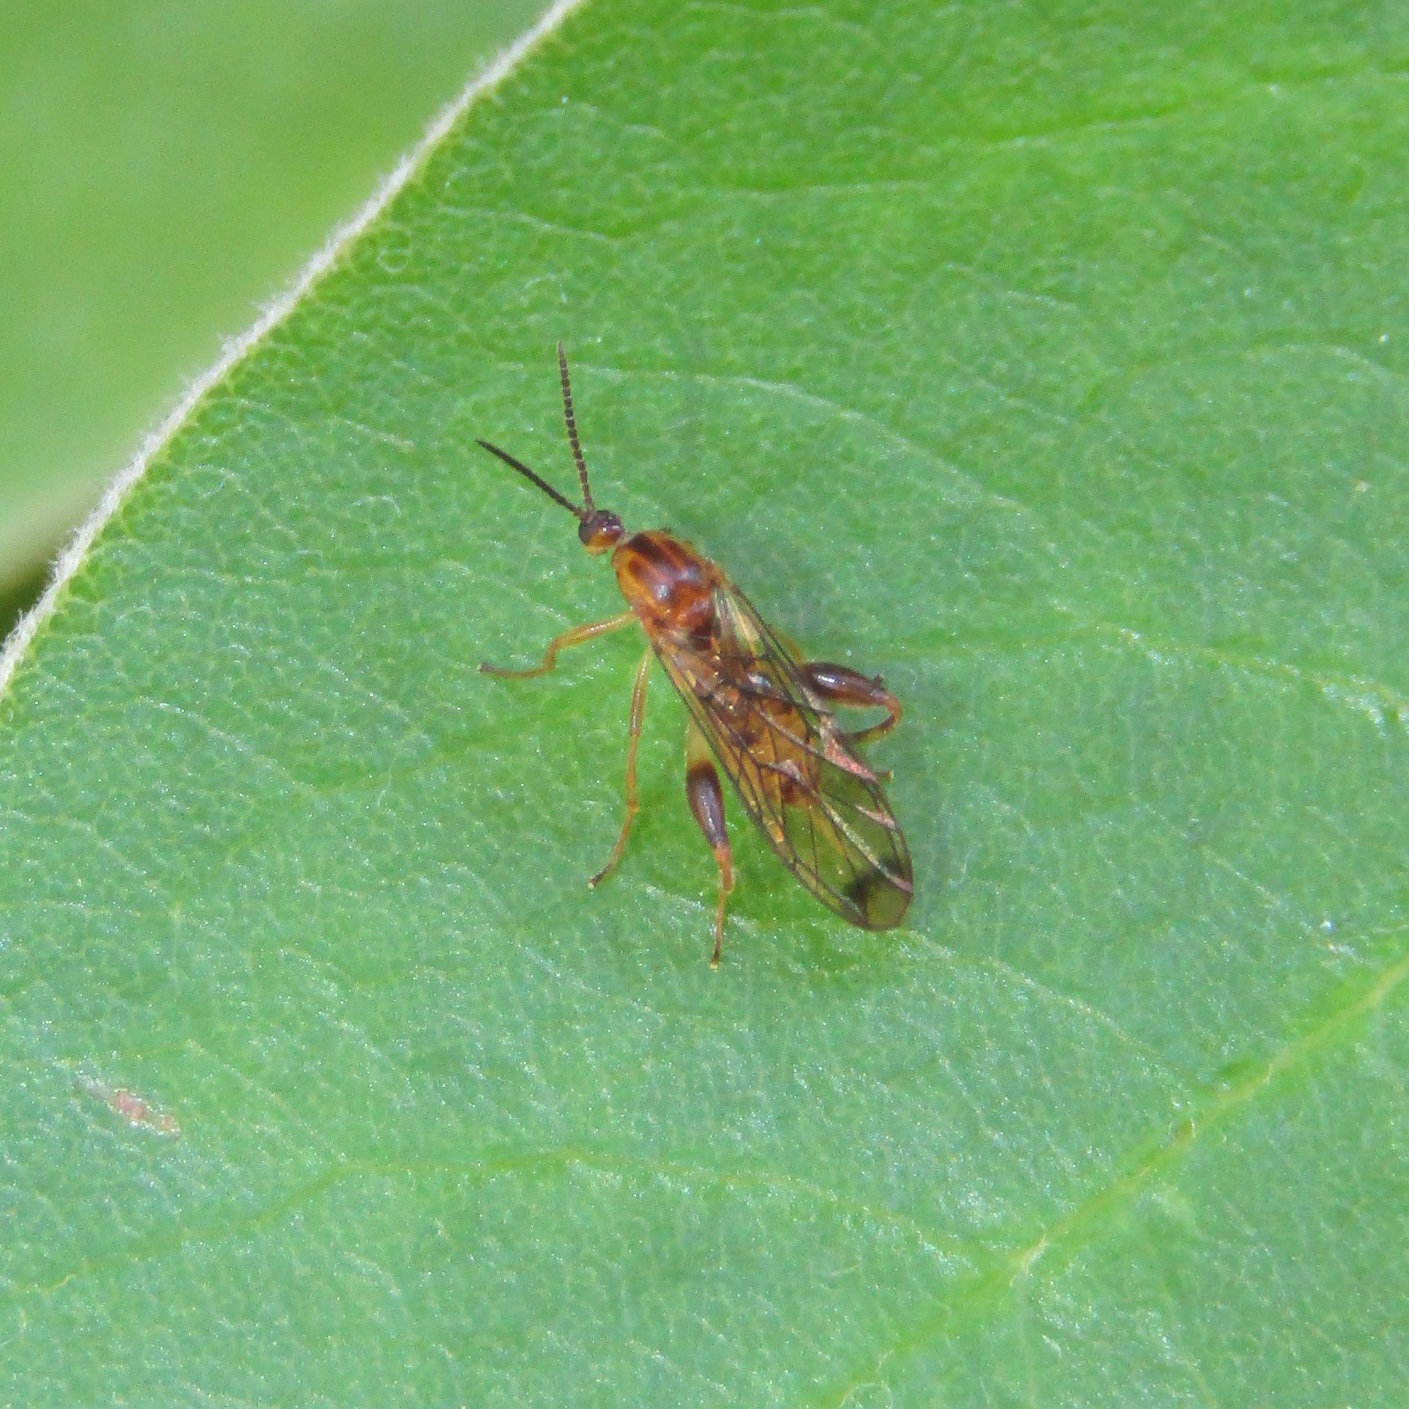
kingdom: Animalia
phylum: Arthropoda
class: Insecta
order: Diptera
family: Canthyloscelididae
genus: Canthyloscelis
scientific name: Canthyloscelis antennata
